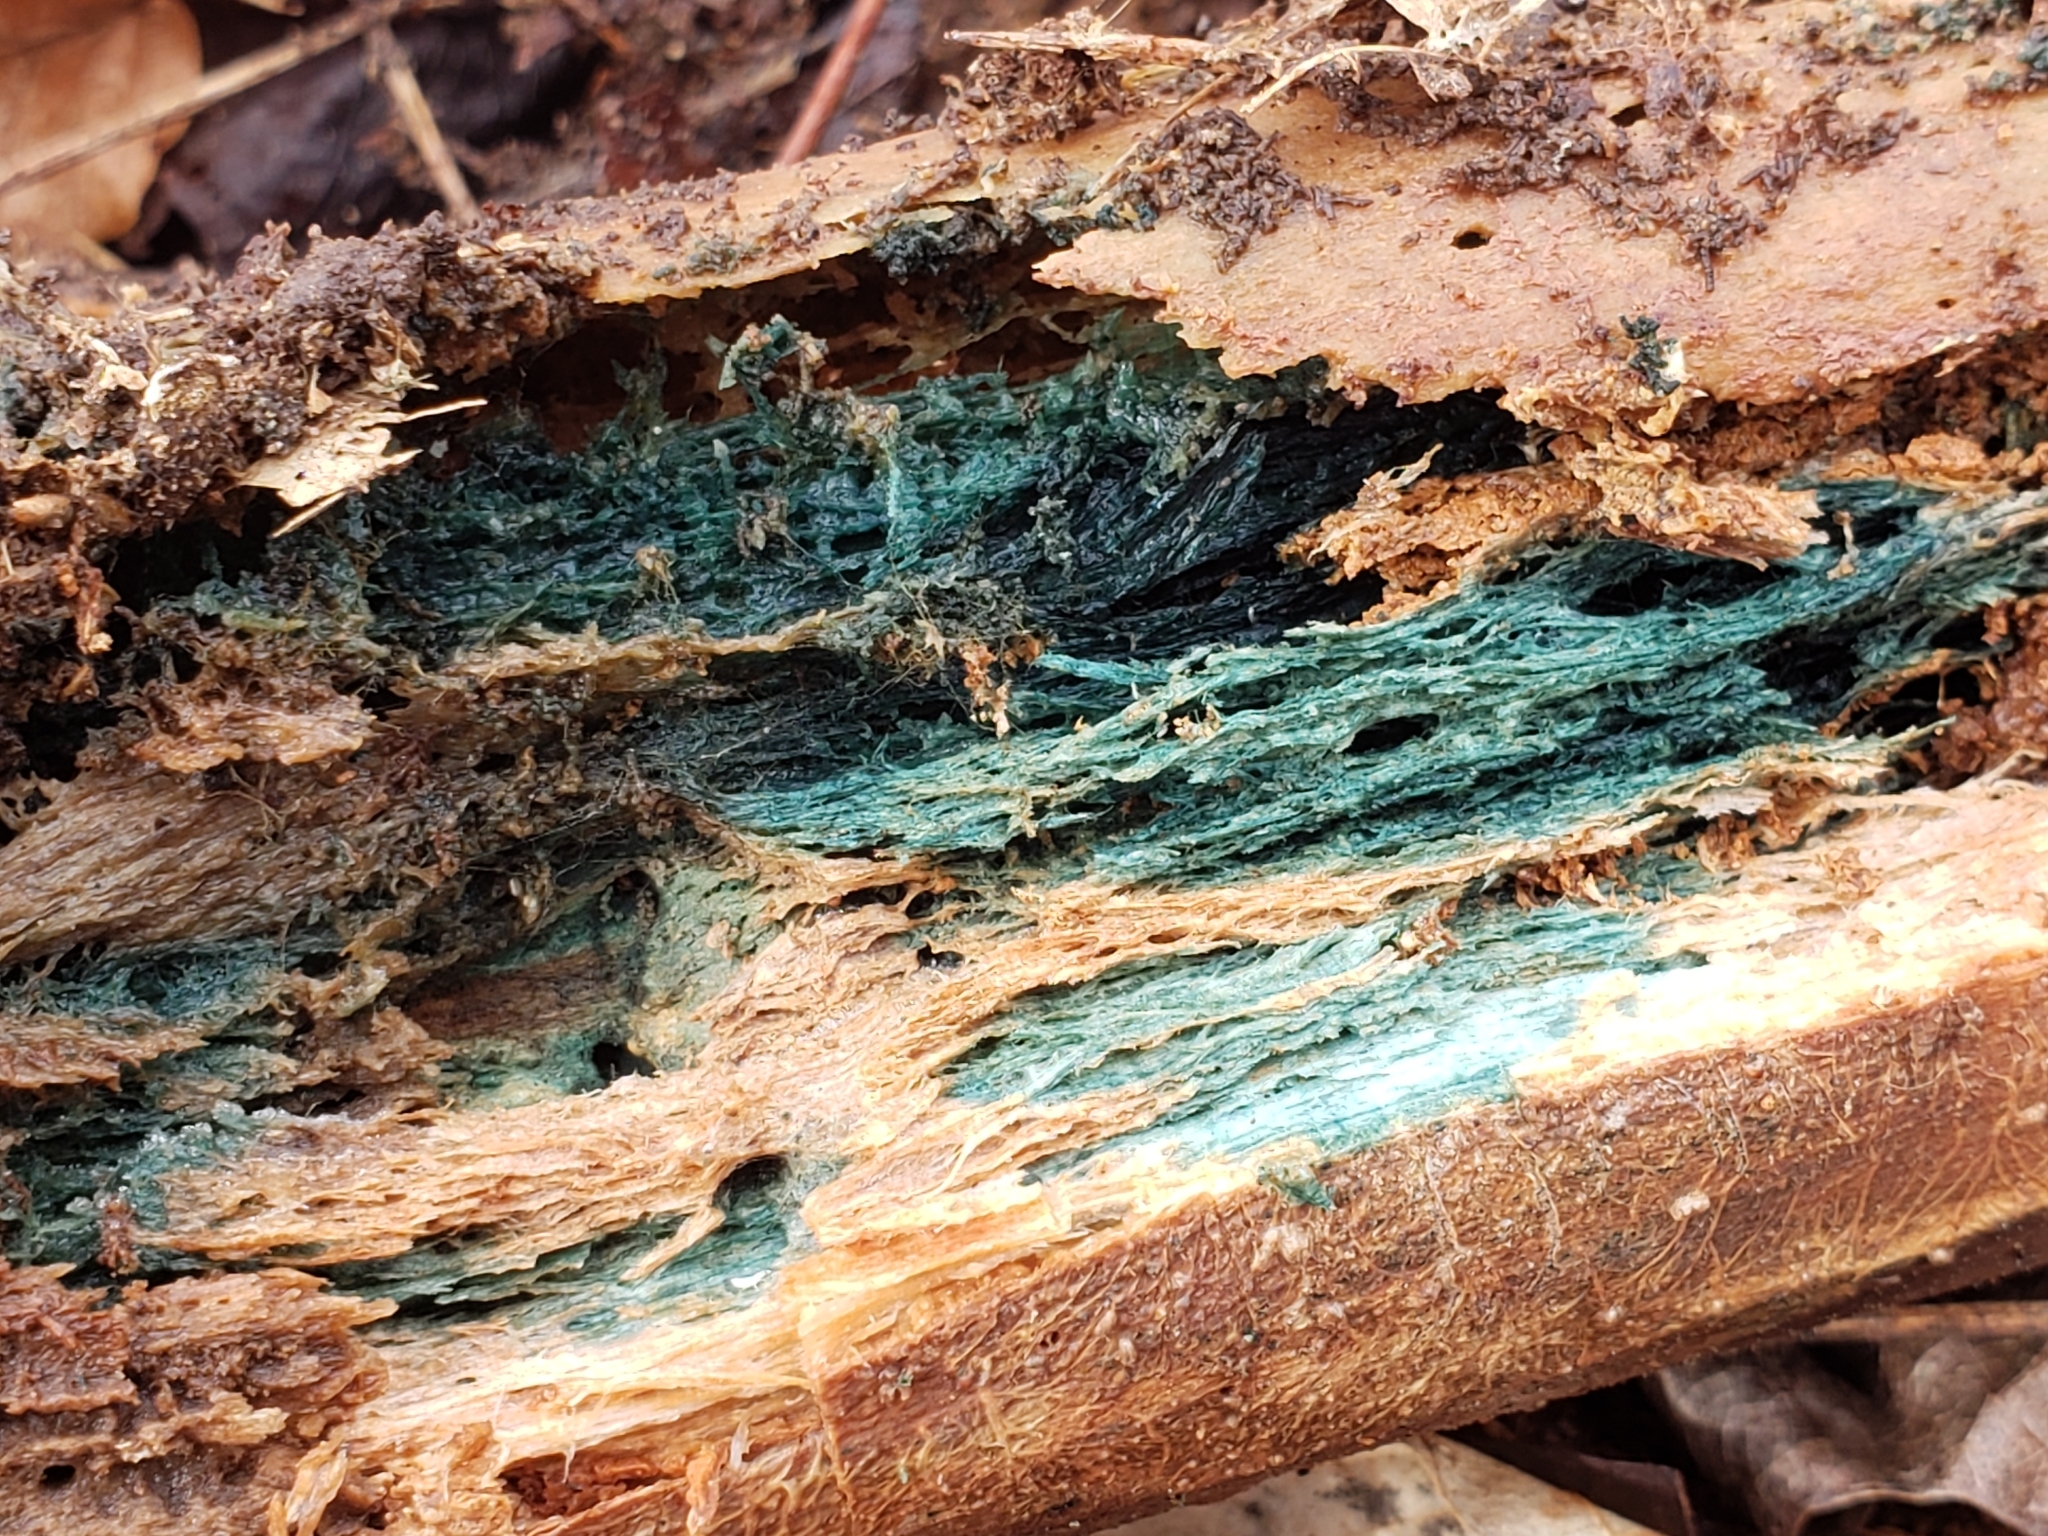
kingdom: Fungi
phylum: Ascomycota
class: Leotiomycetes
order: Helotiales
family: Chlorociboriaceae
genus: Chlorociboria
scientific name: Chlorociboria
